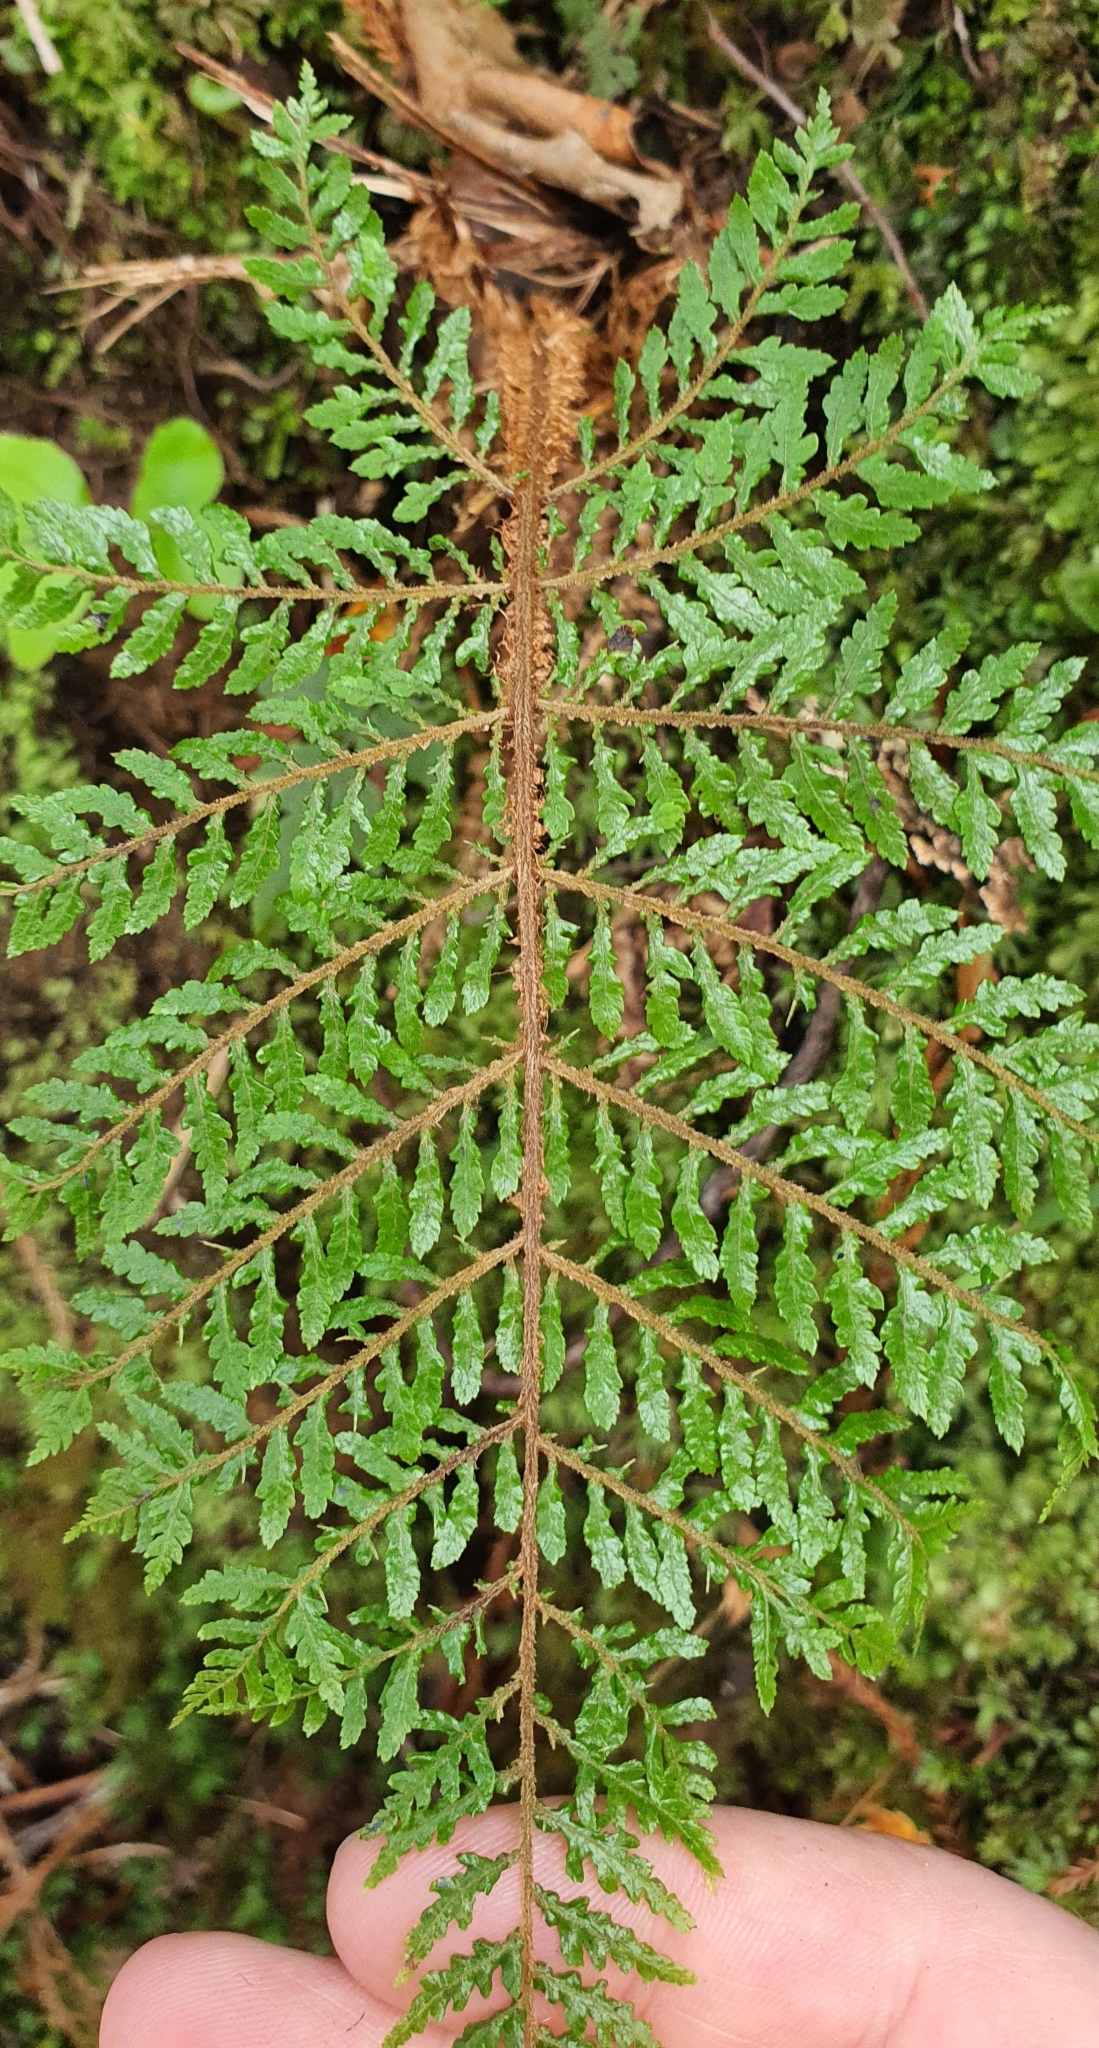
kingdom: Plantae
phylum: Tracheophyta
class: Polypodiopsida
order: Cyatheales
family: Cyatheaceae
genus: Alsophila
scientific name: Alsophila smithii
